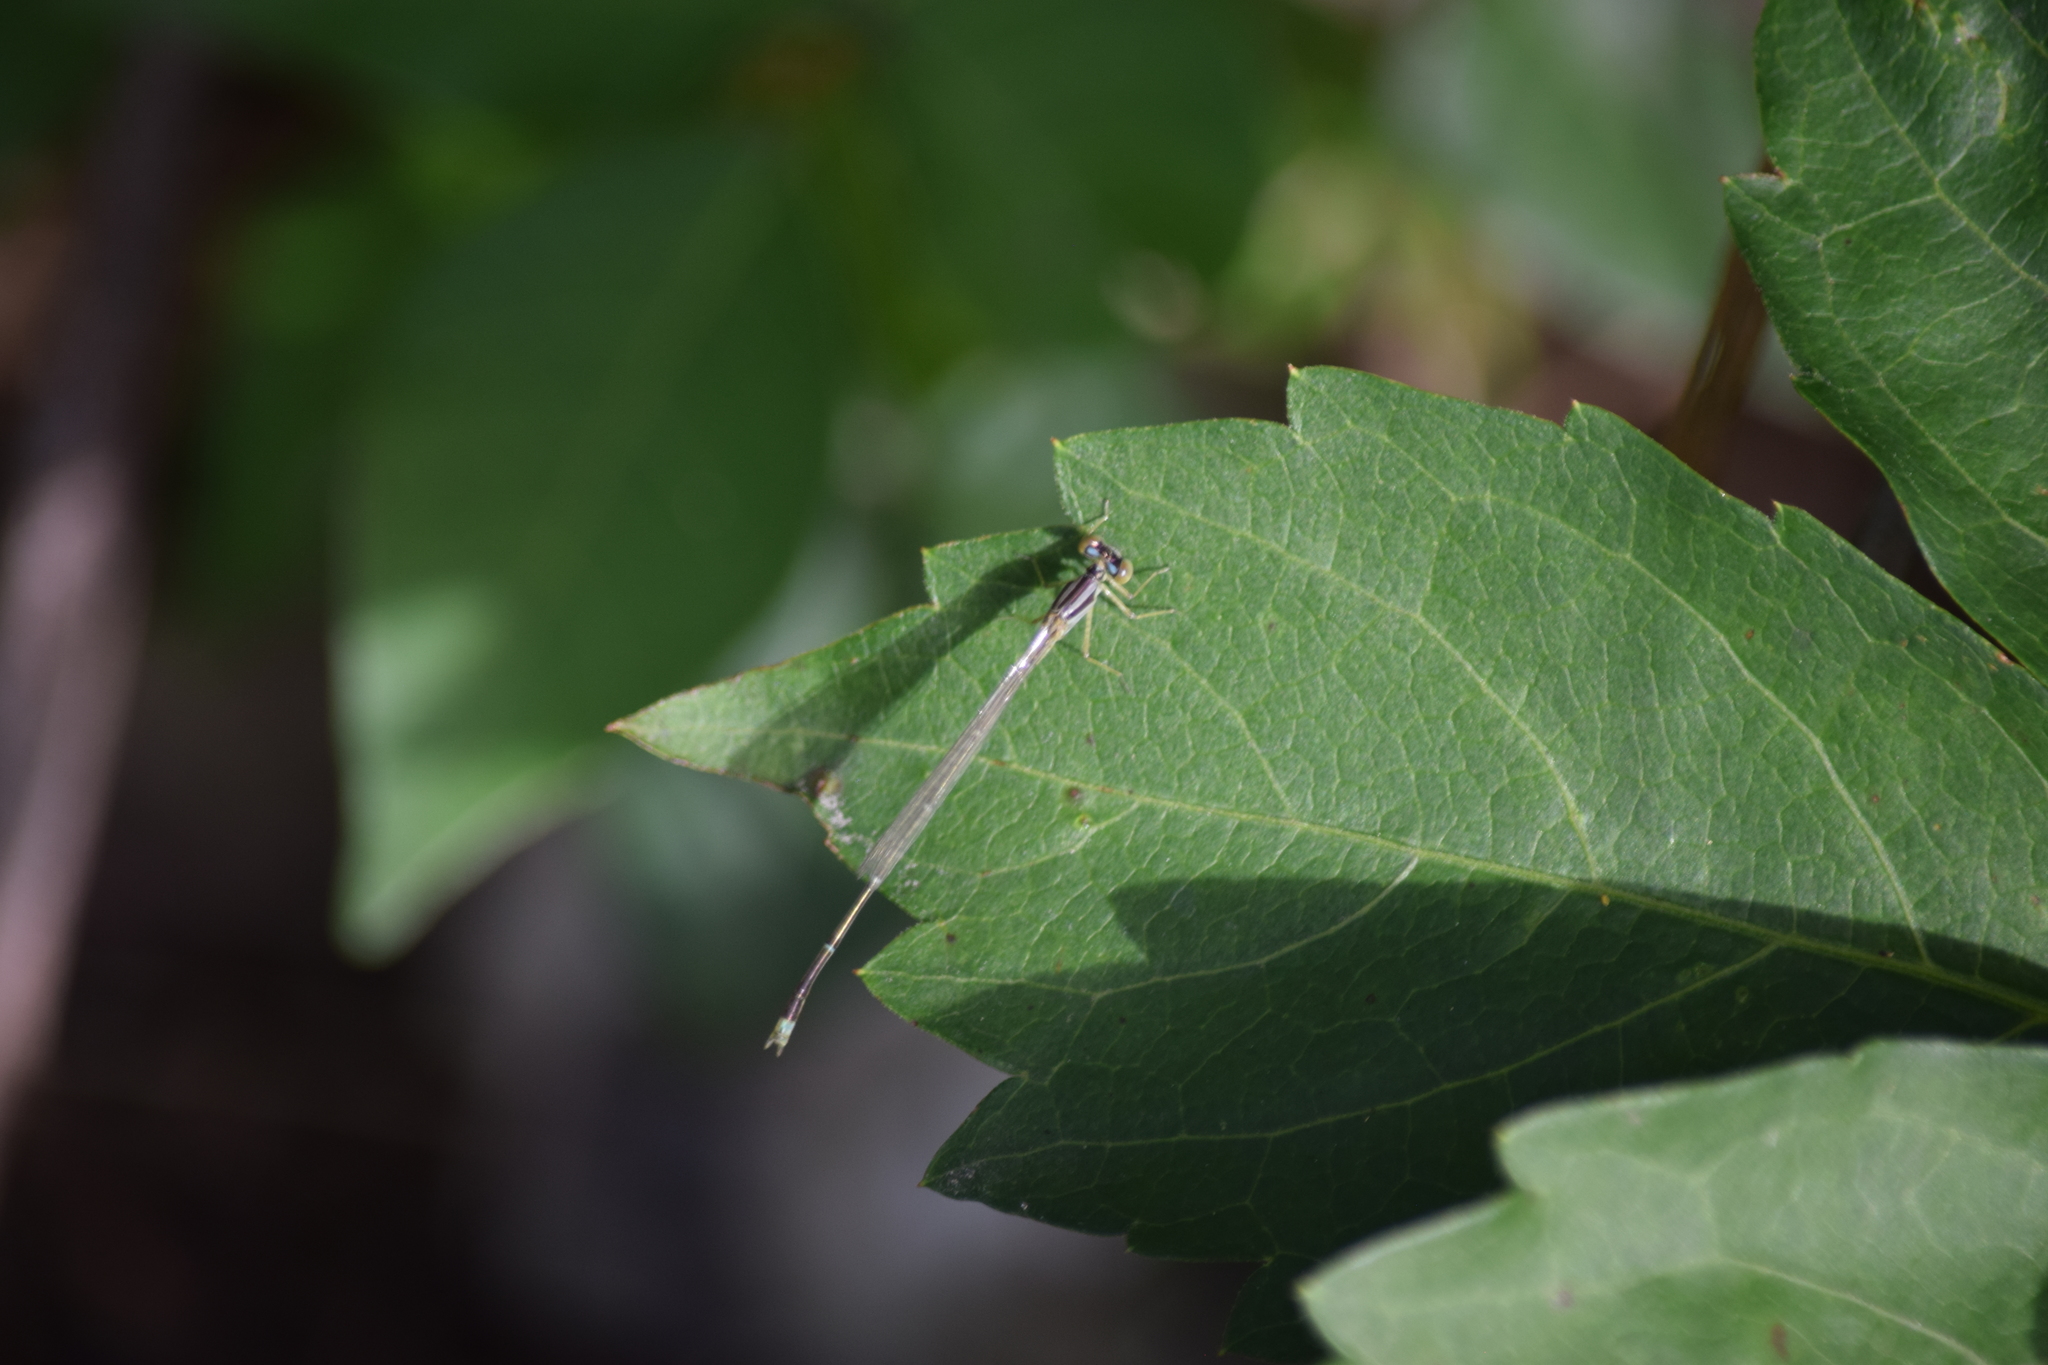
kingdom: Animalia
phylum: Arthropoda
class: Insecta
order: Odonata
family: Coenagrionidae
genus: Enallagma
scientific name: Enallagma signatum
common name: Orange bluet
